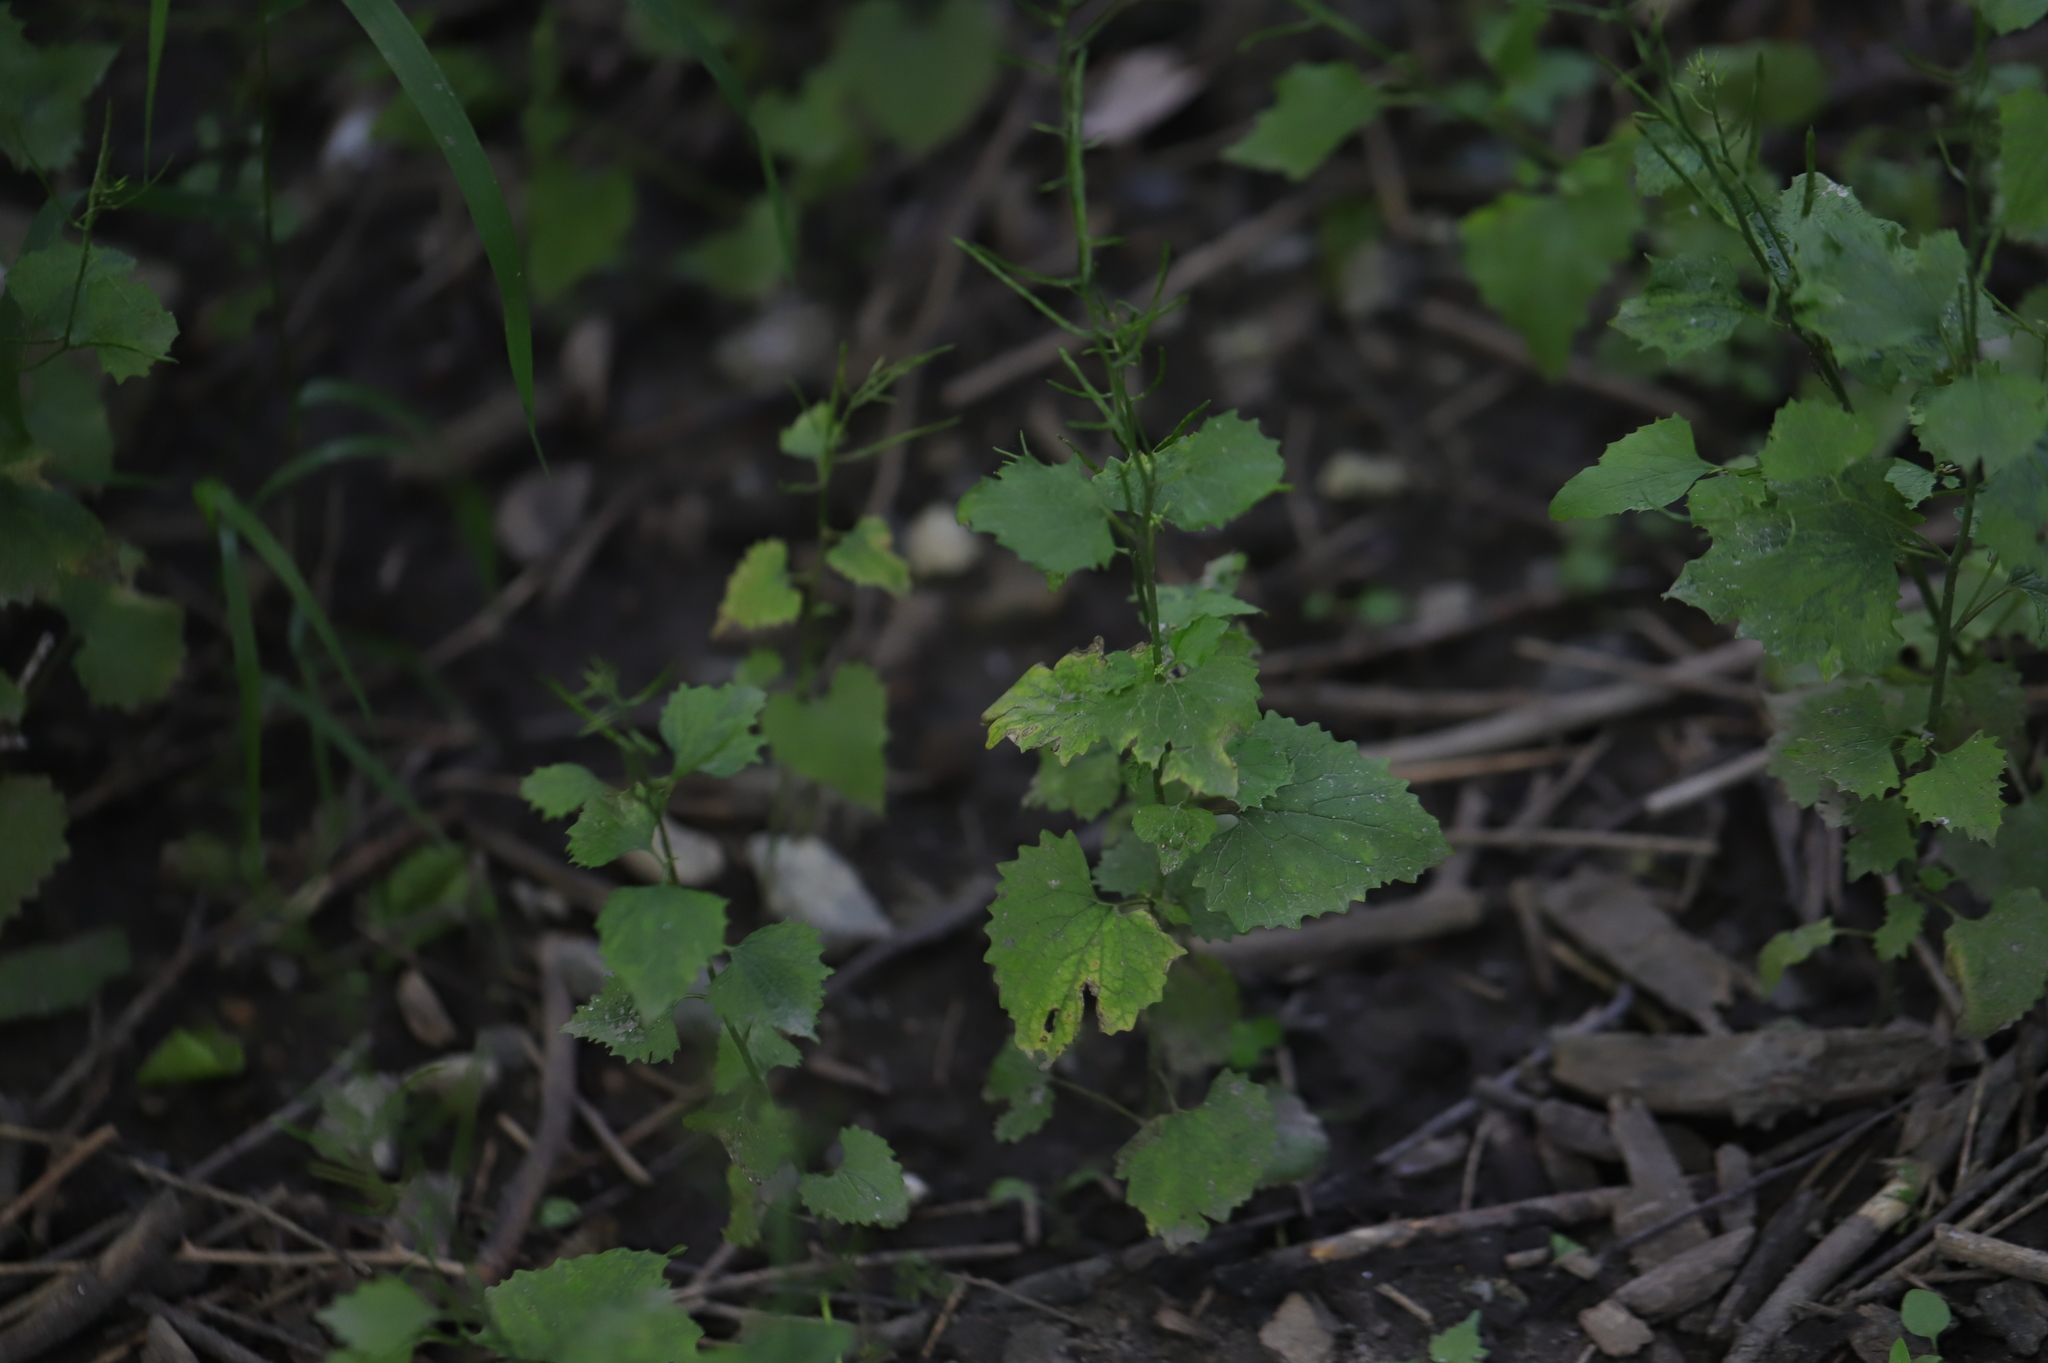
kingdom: Plantae
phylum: Tracheophyta
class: Magnoliopsida
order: Brassicales
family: Brassicaceae
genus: Alliaria
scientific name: Alliaria petiolata
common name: Garlic mustard
